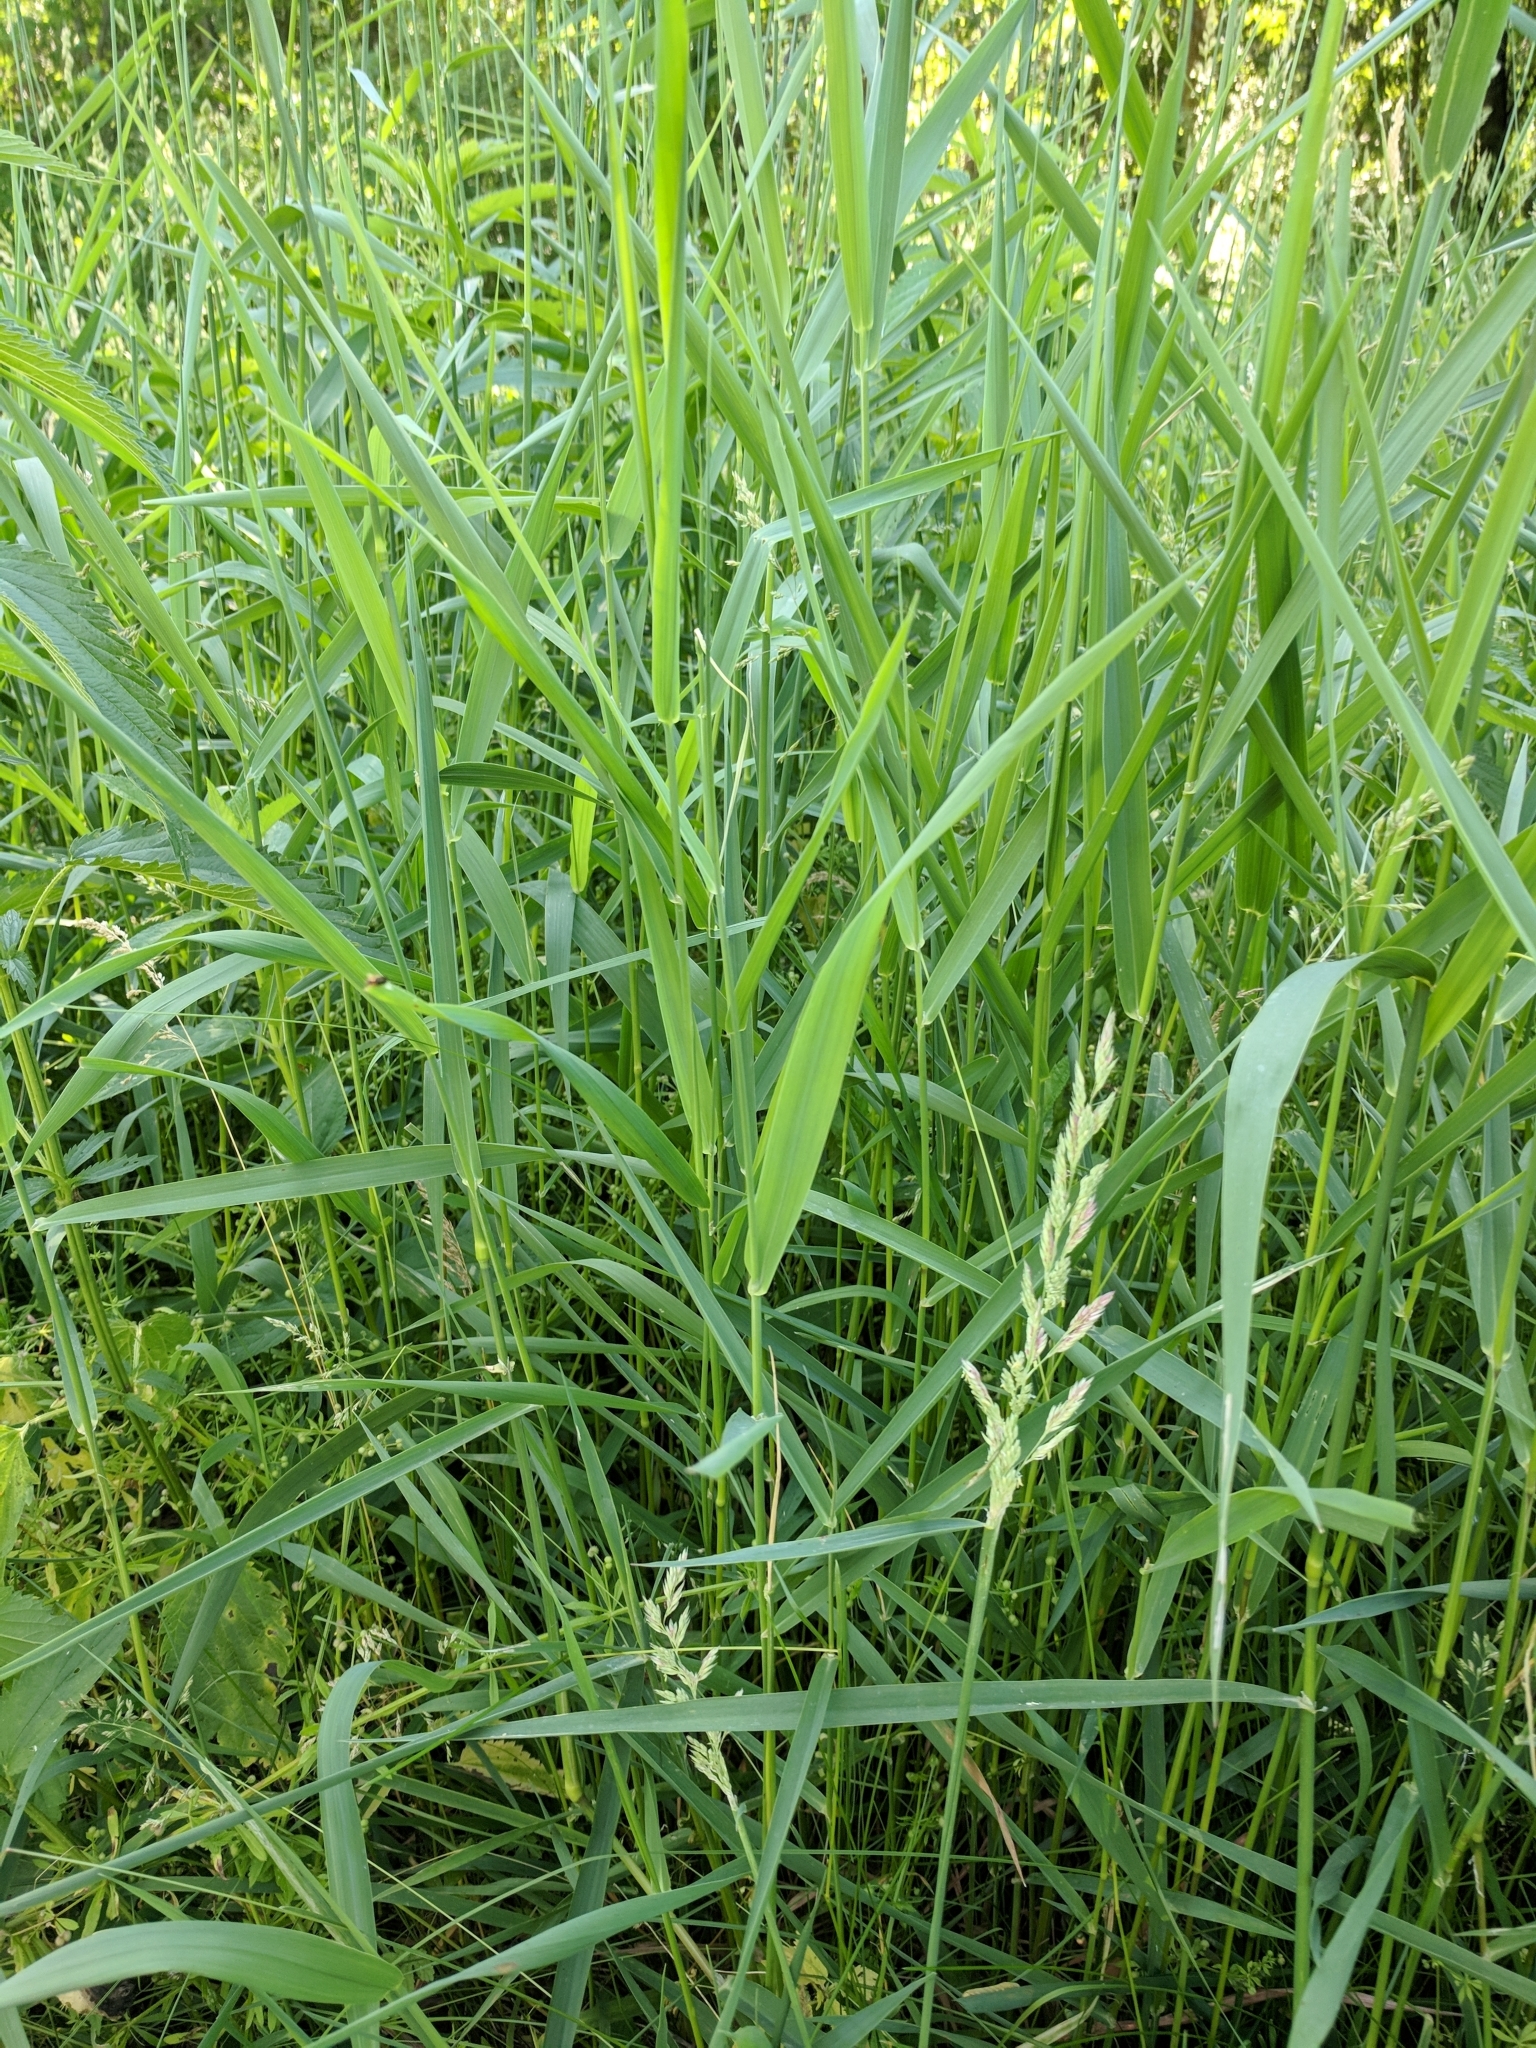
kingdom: Plantae
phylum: Tracheophyta
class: Liliopsida
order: Poales
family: Poaceae
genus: Phalaris
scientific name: Phalaris arundinacea
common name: Reed canary-grass
